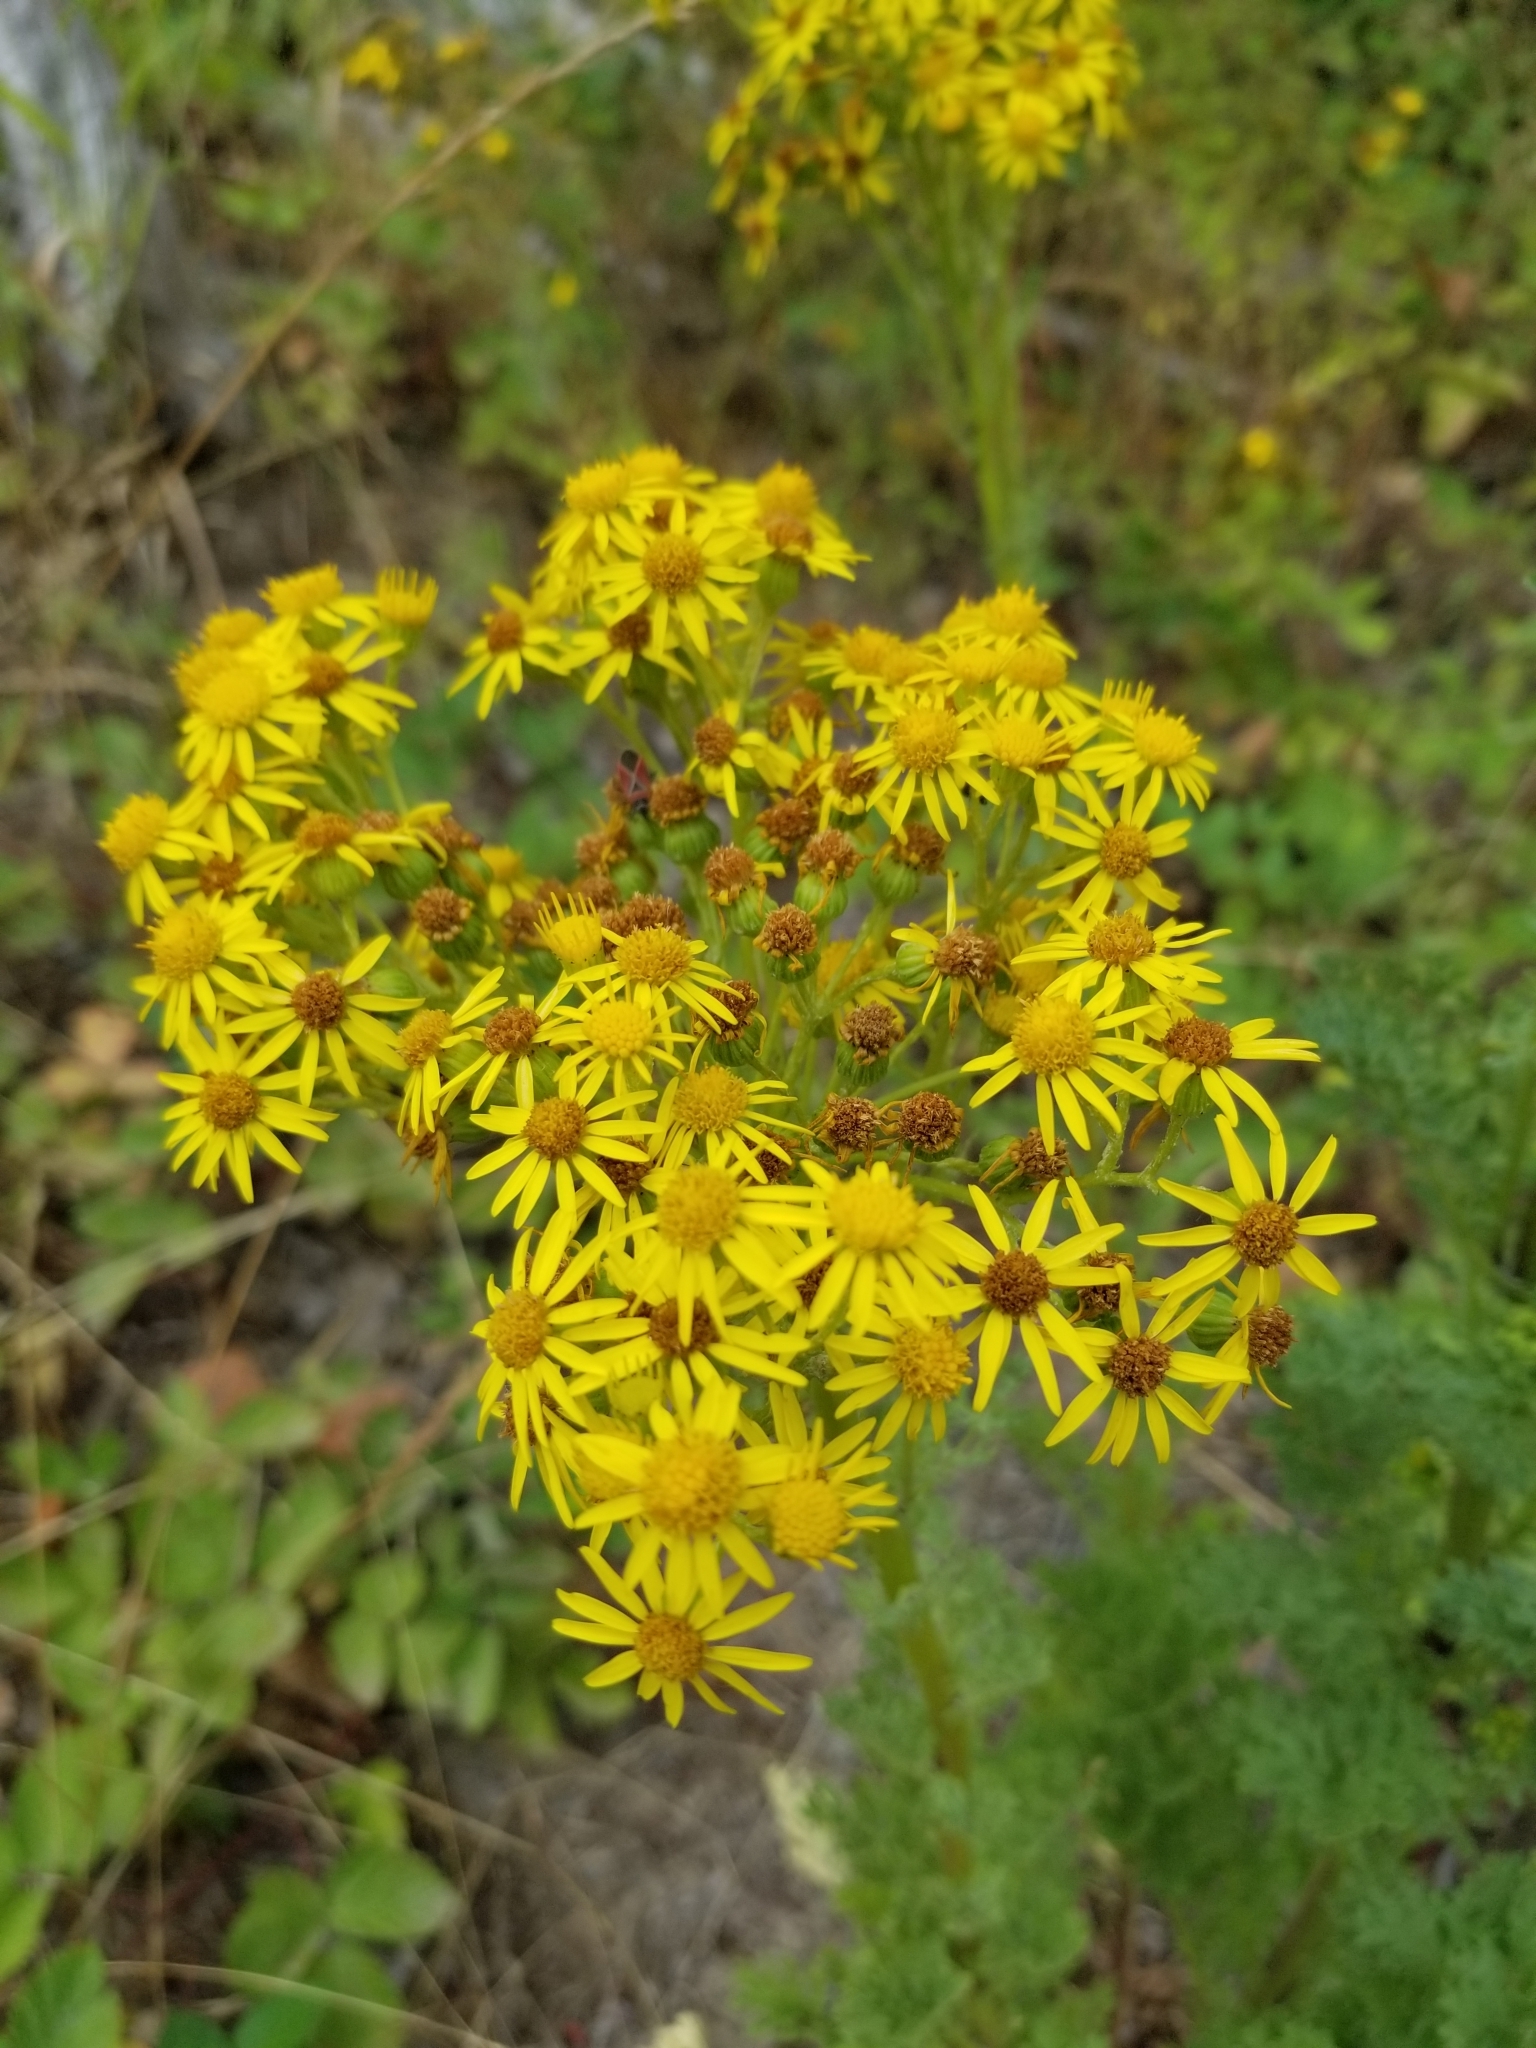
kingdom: Plantae
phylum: Tracheophyta
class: Magnoliopsida
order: Asterales
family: Asteraceae
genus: Jacobaea
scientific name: Jacobaea vulgaris
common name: Stinking willie
